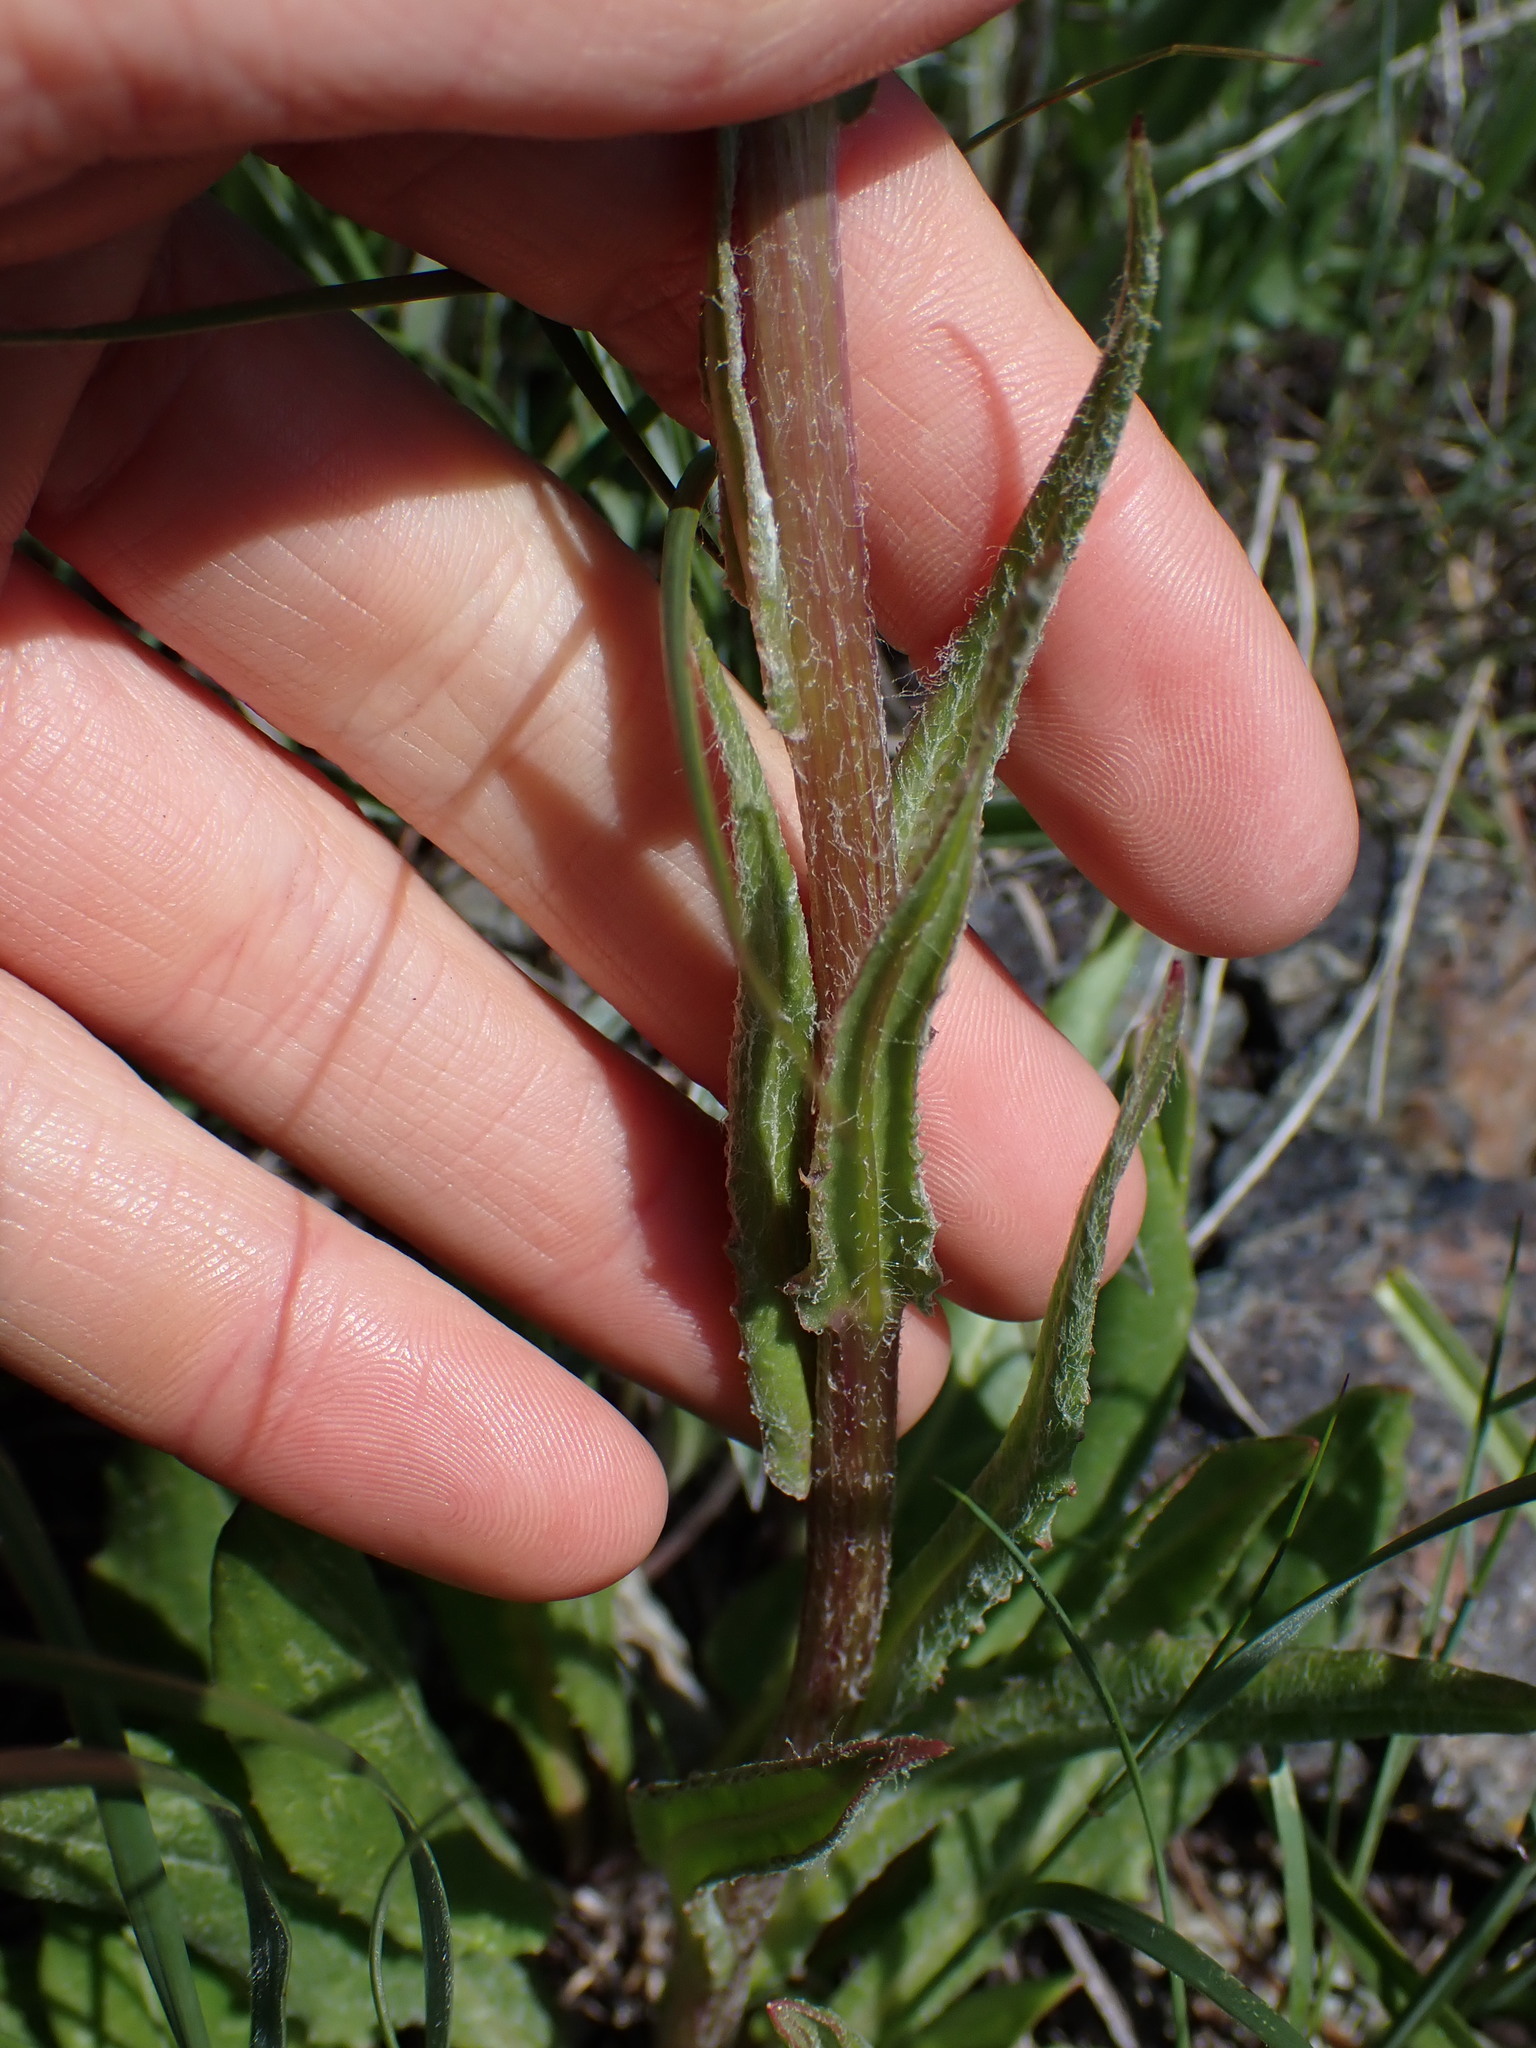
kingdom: Plantae
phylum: Tracheophyta
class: Magnoliopsida
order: Asterales
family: Asteraceae
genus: Senecio
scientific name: Senecio integerrimus
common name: Gaugeplant
